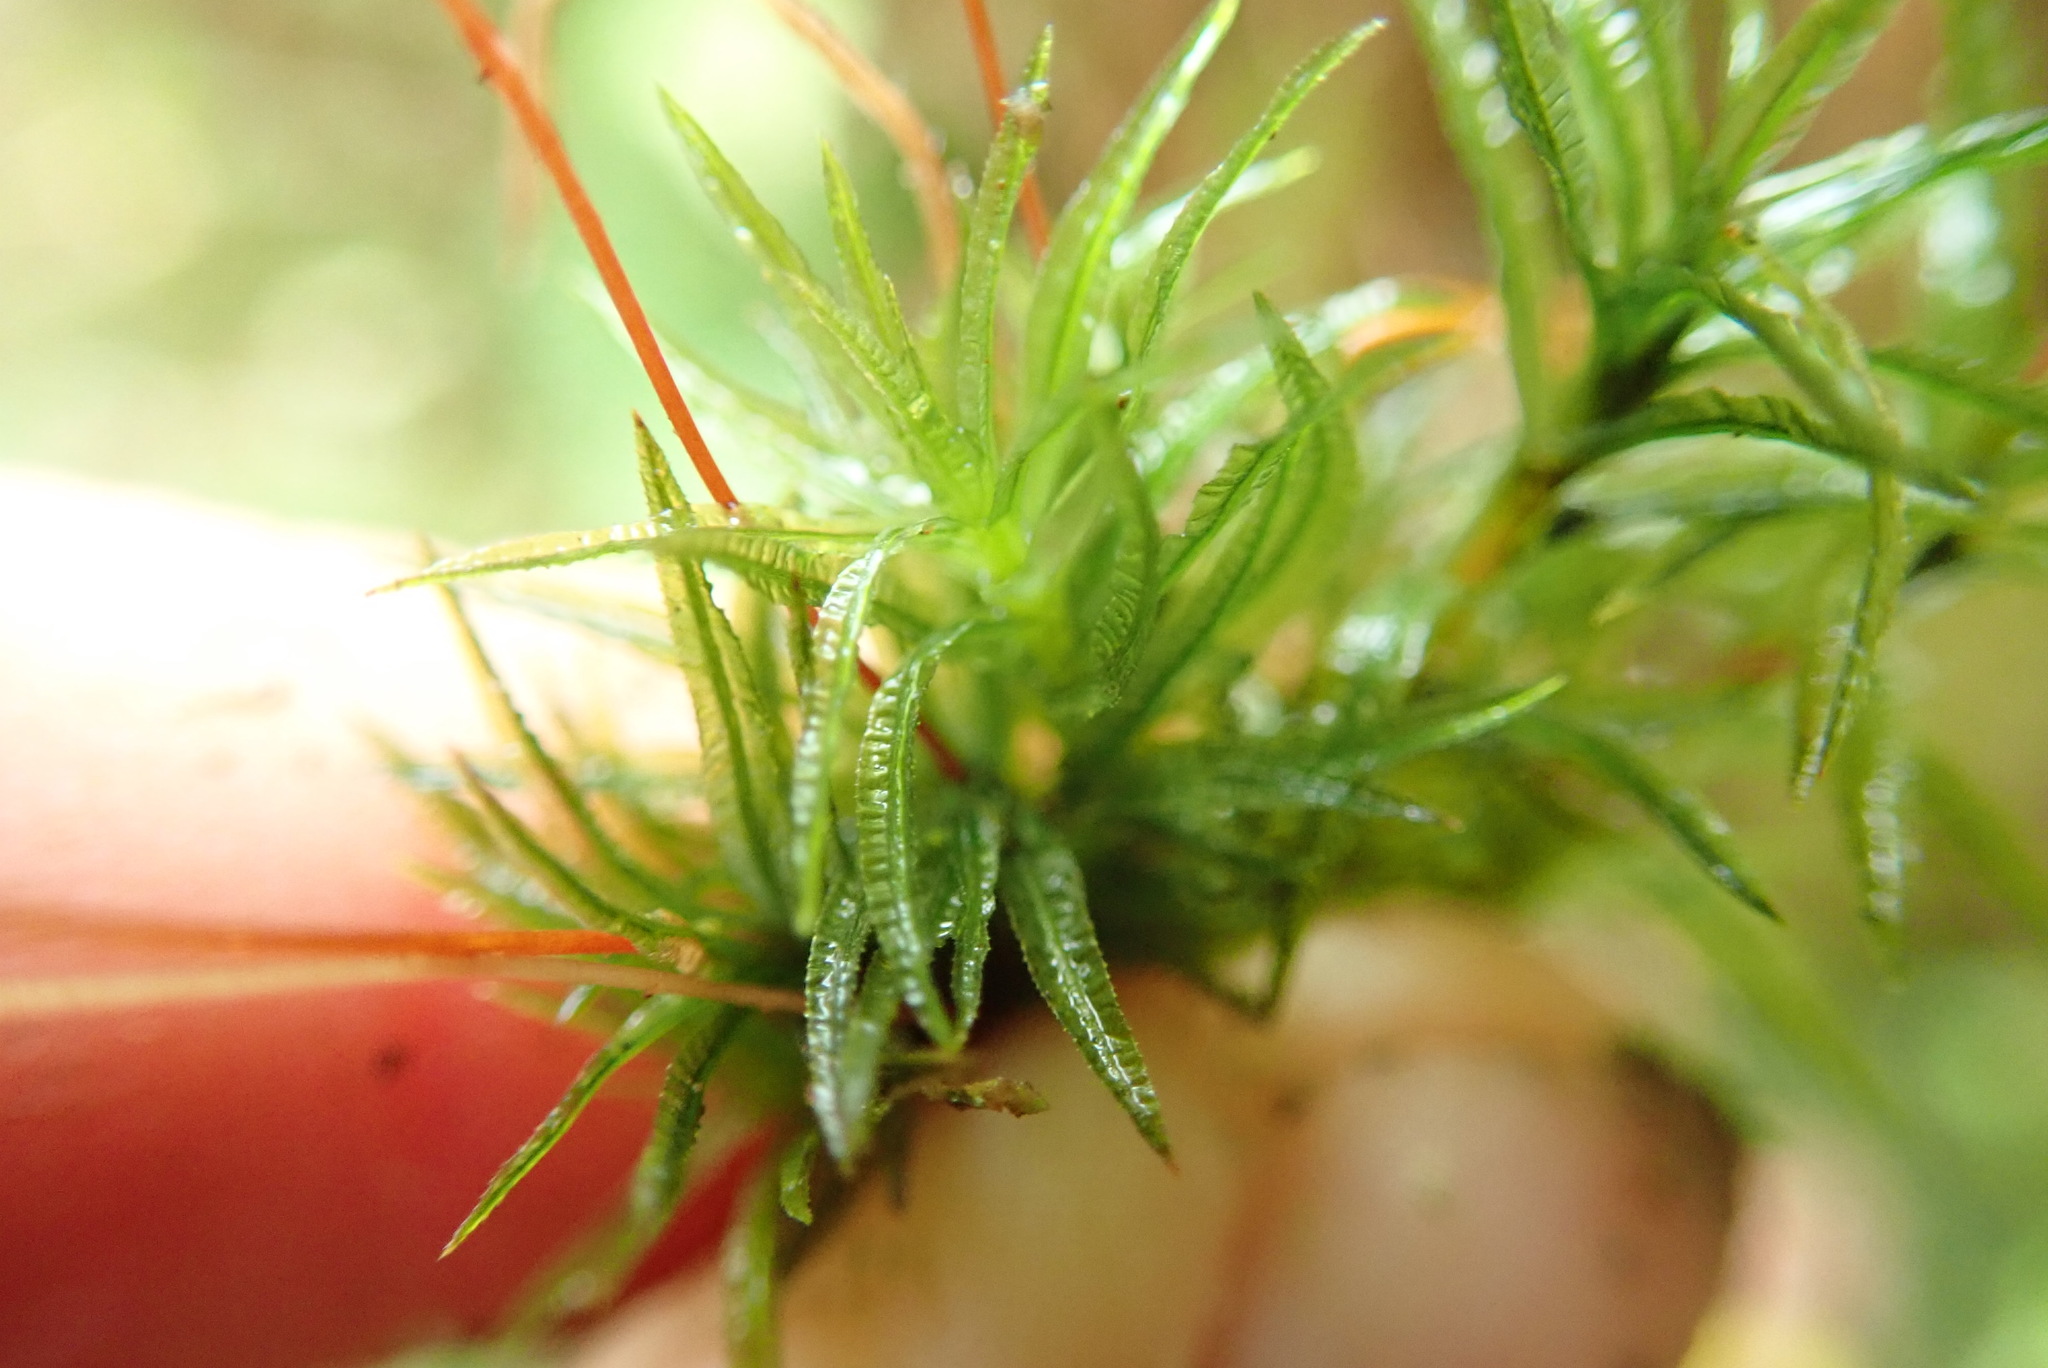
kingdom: Plantae
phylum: Bryophyta
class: Polytrichopsida
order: Polytrichales
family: Polytrichaceae
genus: Atrichum
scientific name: Atrichum undulatum
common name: Common smoothcap
